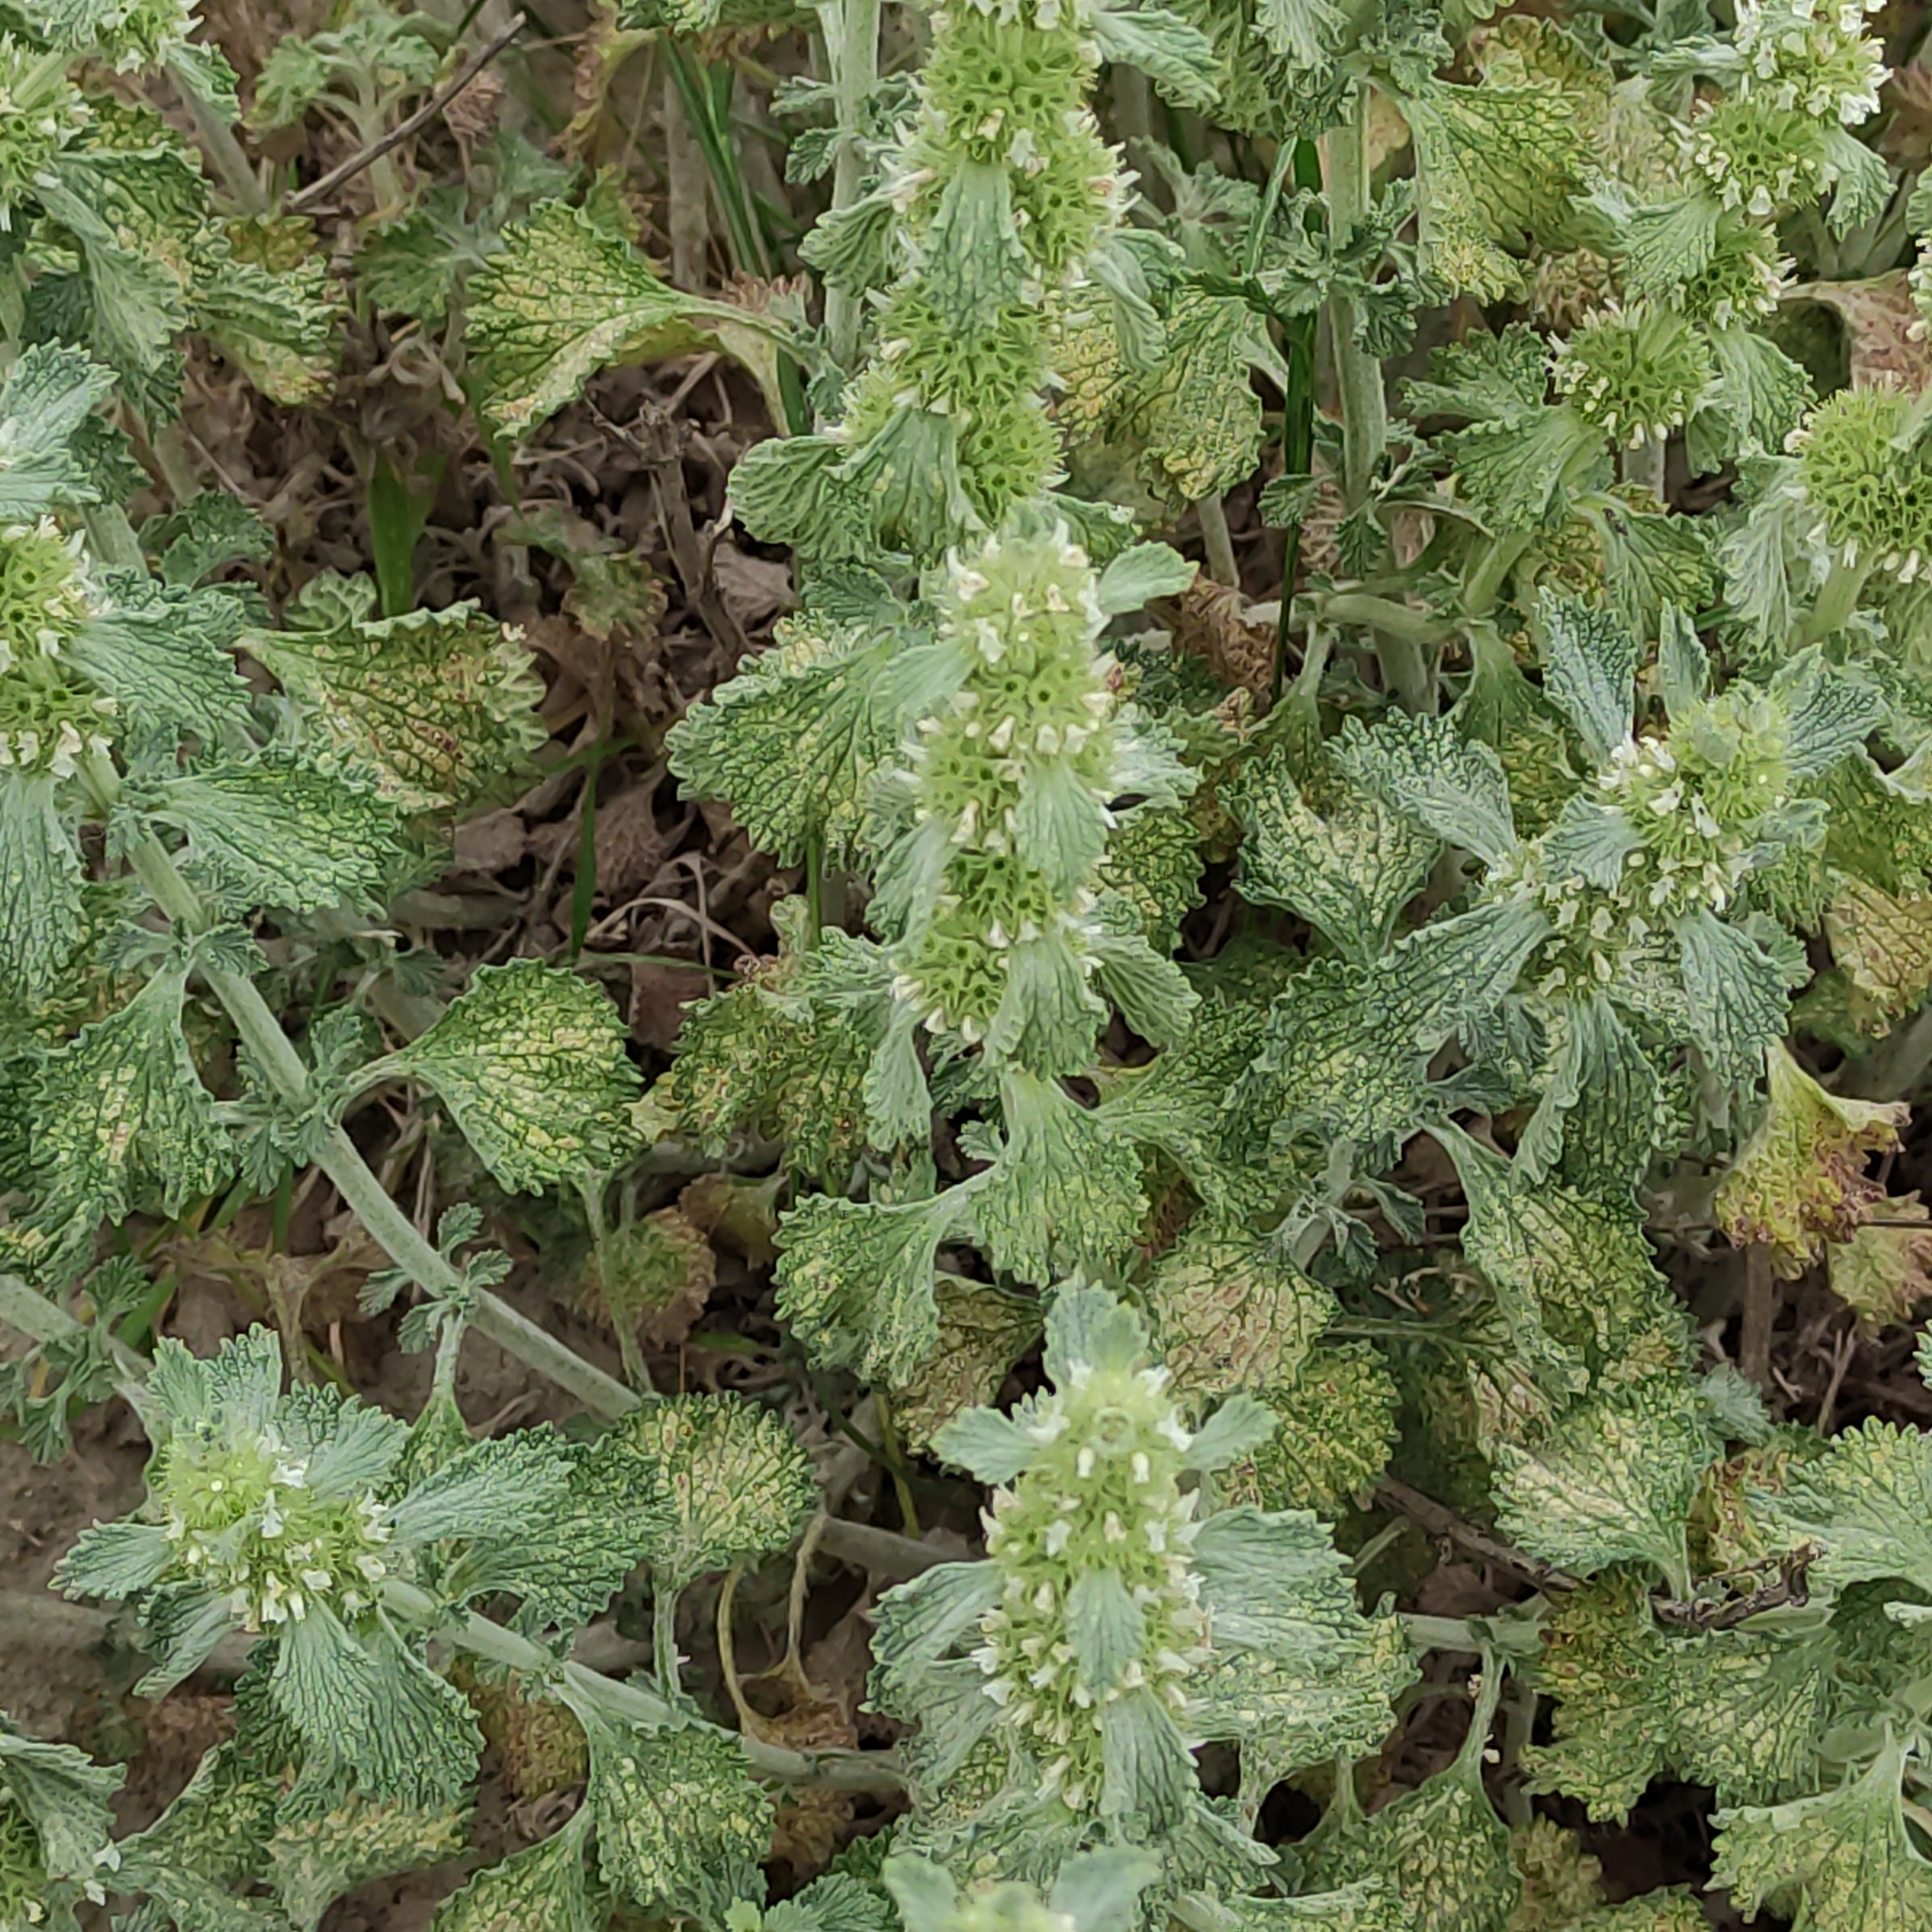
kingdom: Plantae
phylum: Tracheophyta
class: Magnoliopsida
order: Lamiales
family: Lamiaceae
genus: Marrubium
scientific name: Marrubium vulgare
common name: Horehound
